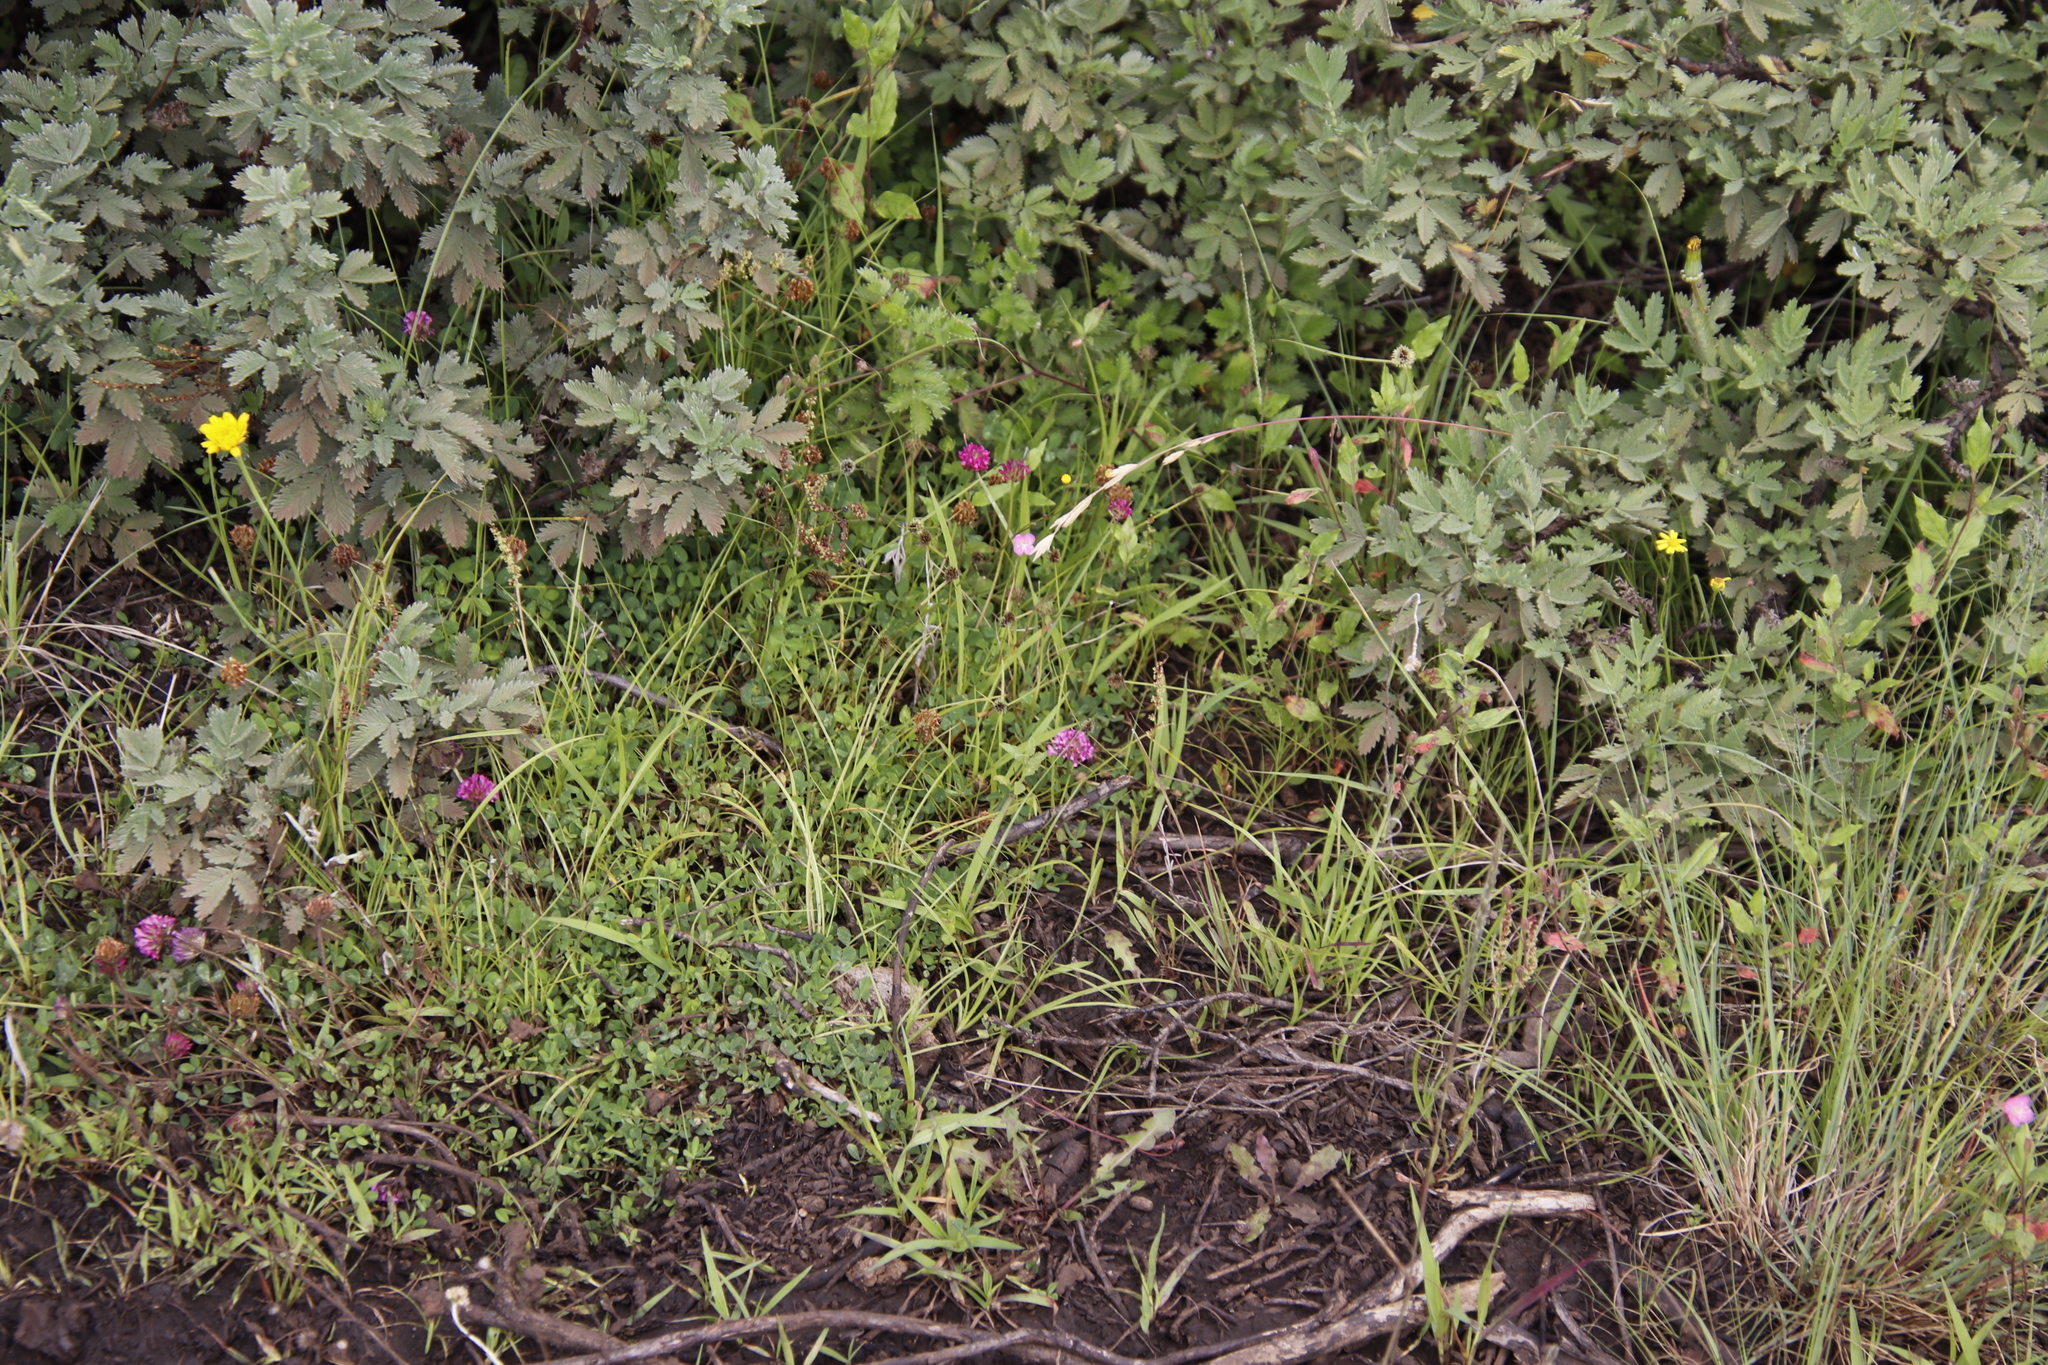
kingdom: Plantae
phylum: Tracheophyta
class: Magnoliopsida
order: Fabales
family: Fabaceae
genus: Trifolium
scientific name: Trifolium burchellianum
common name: Burchell's clover
